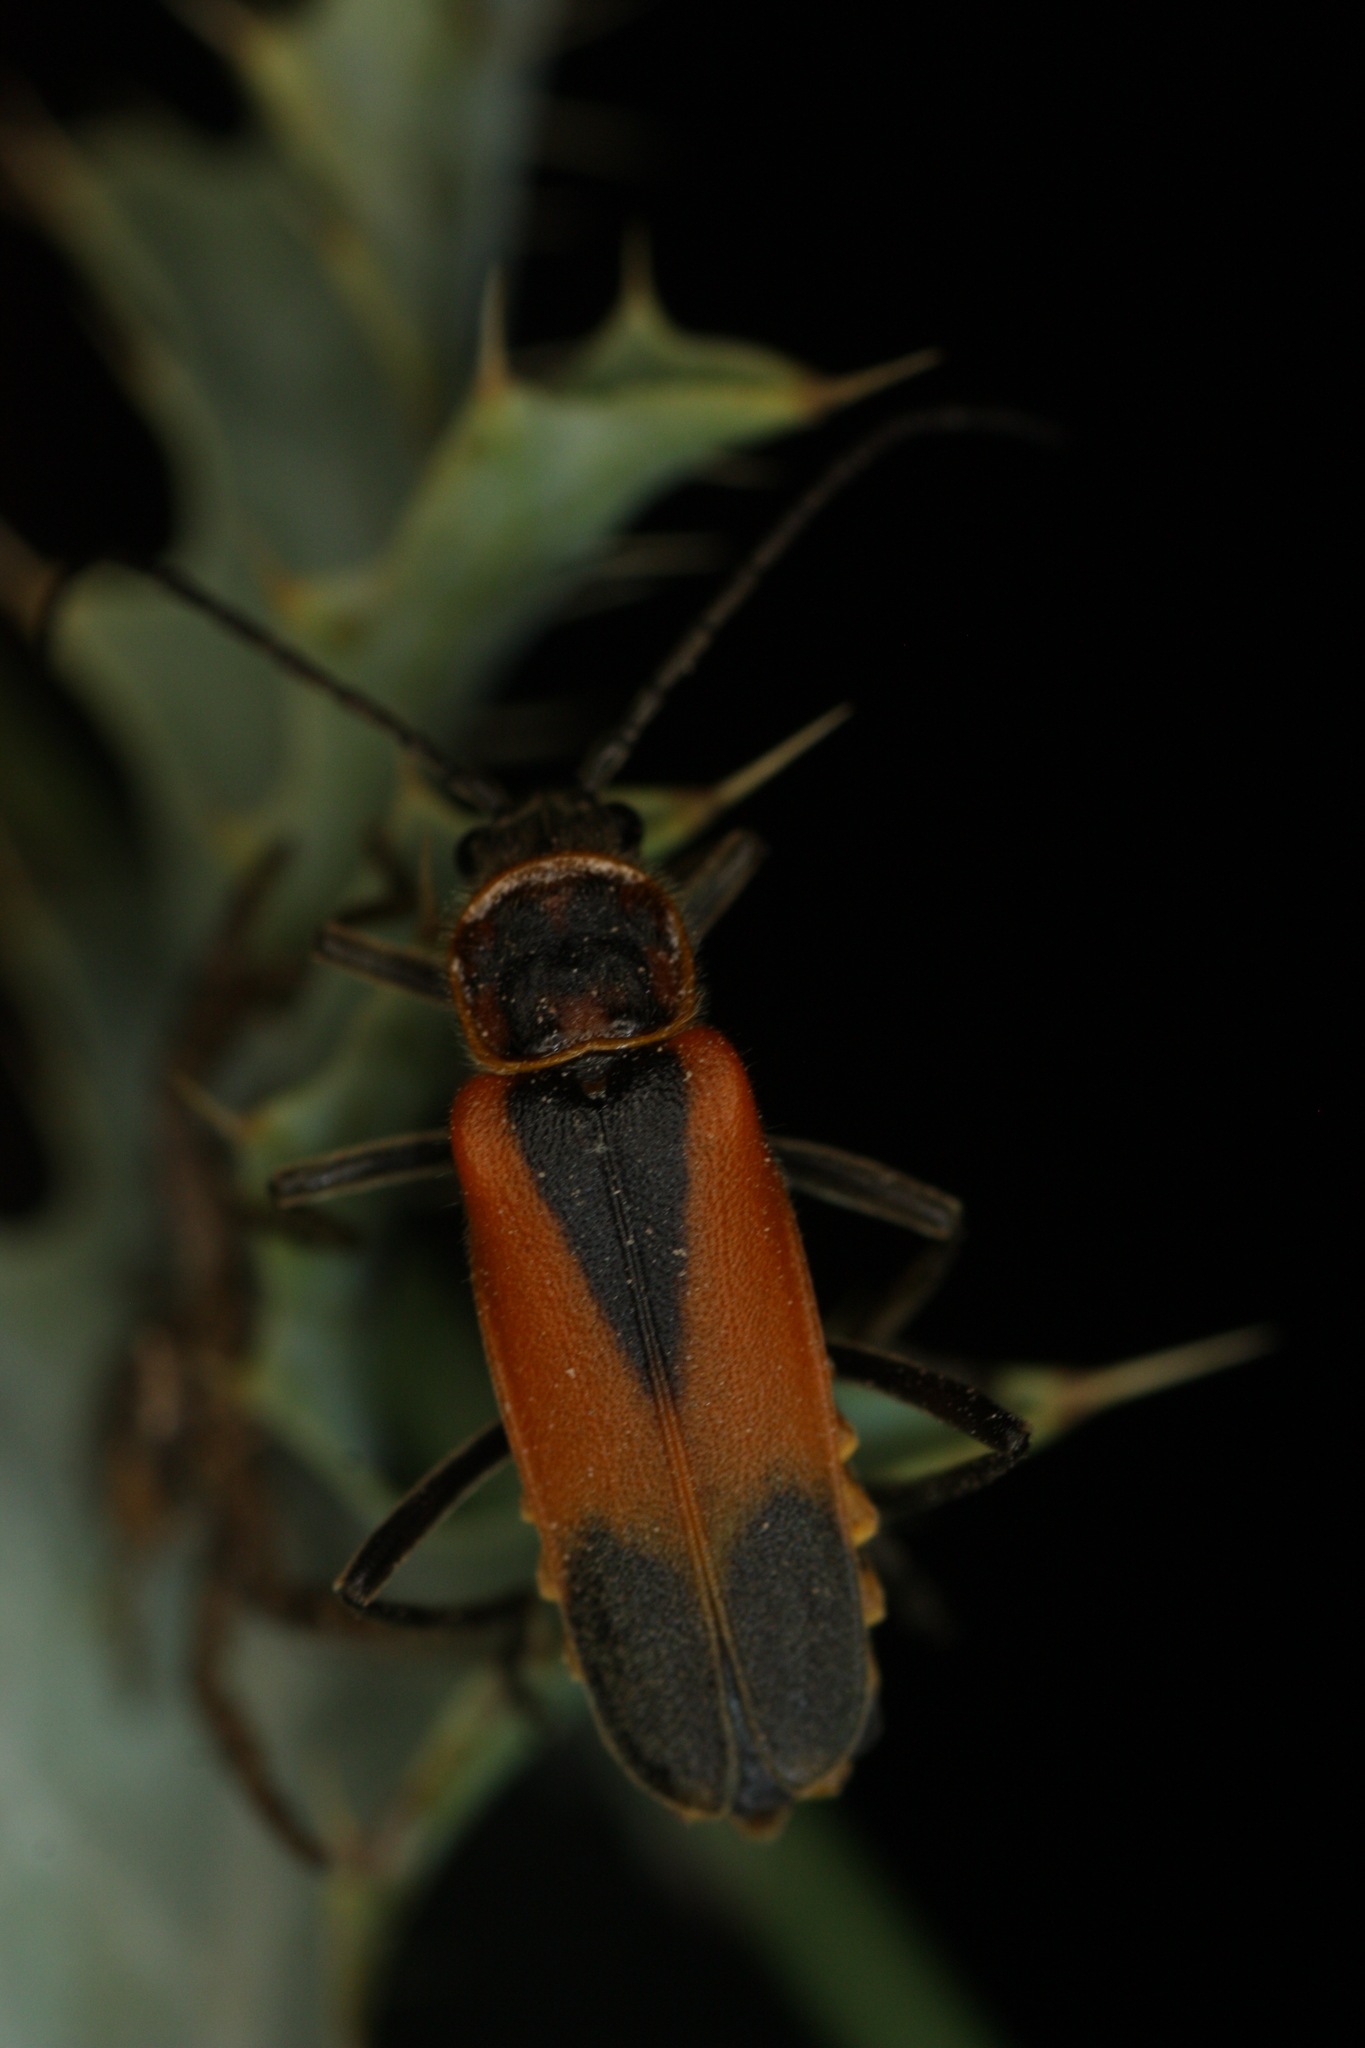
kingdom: Animalia
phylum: Arthropoda
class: Insecta
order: Coleoptera
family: Cantharidae
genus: Chauliognathus
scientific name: Chauliognathus limbicollis
